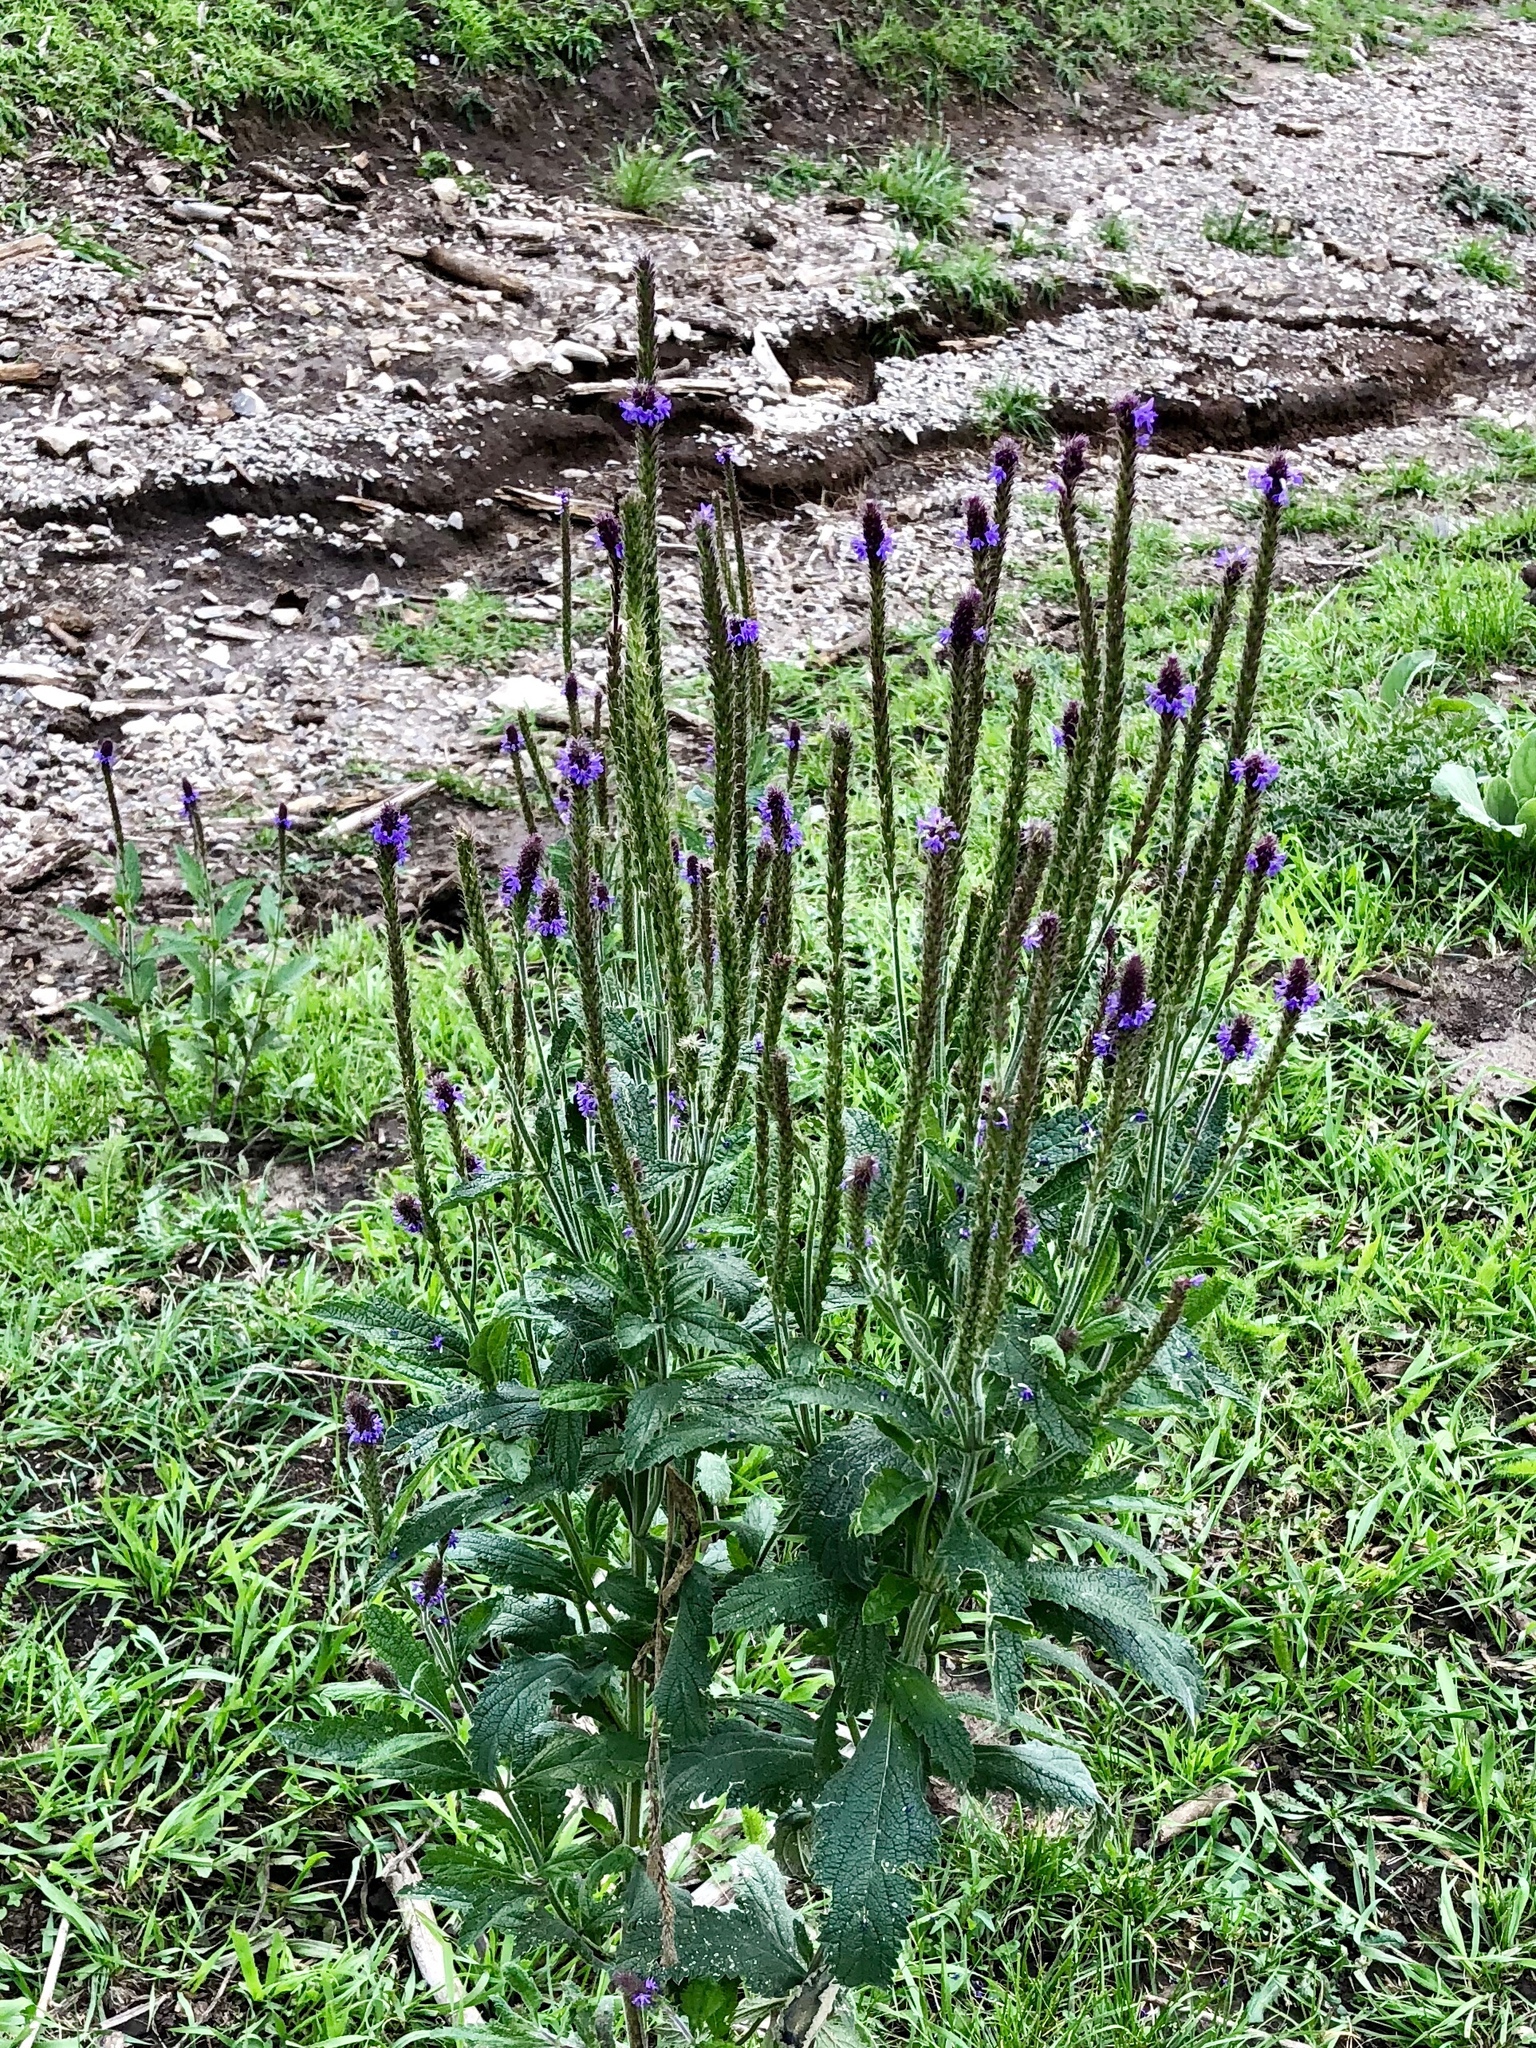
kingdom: Plantae
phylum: Tracheophyta
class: Magnoliopsida
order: Lamiales
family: Verbenaceae
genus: Verbena
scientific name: Verbena macdougalii
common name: New mexico vervain
